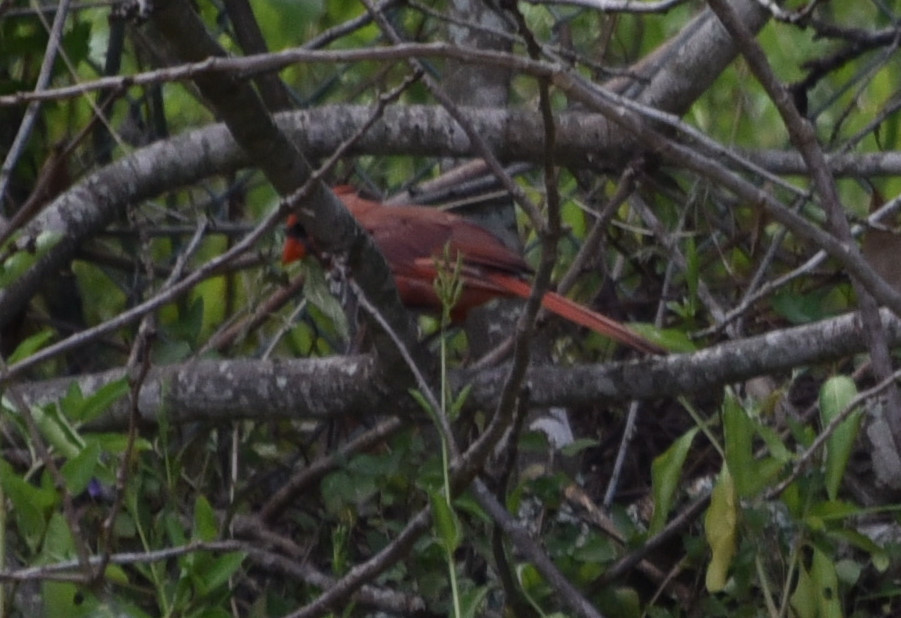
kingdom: Animalia
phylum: Chordata
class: Aves
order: Passeriformes
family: Cardinalidae
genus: Cardinalis
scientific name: Cardinalis cardinalis
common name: Northern cardinal
